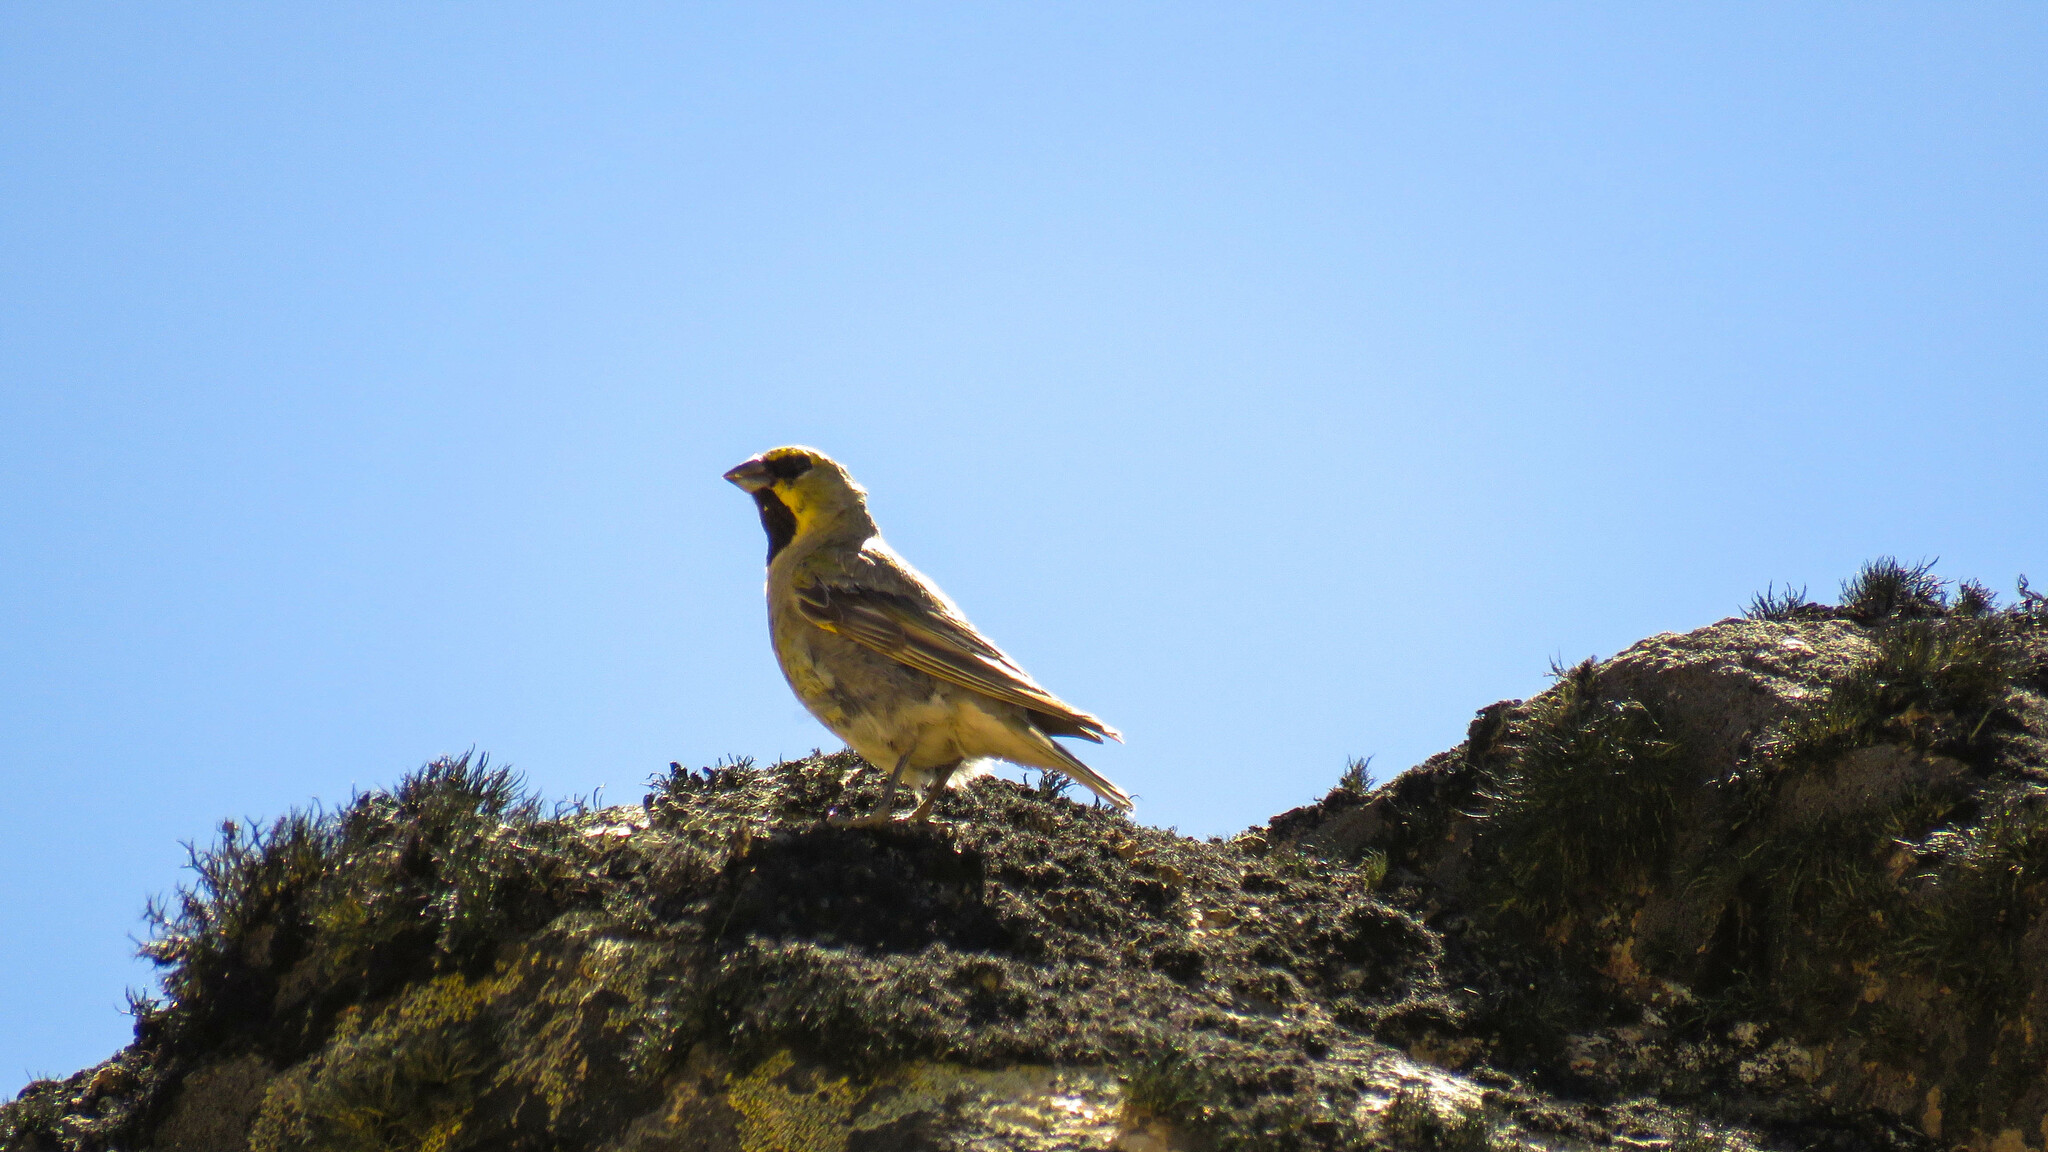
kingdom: Animalia
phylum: Chordata
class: Aves
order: Passeriformes
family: Thraupidae
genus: Melanodera
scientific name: Melanodera xanthogramma
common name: Yellow-bridled finch
